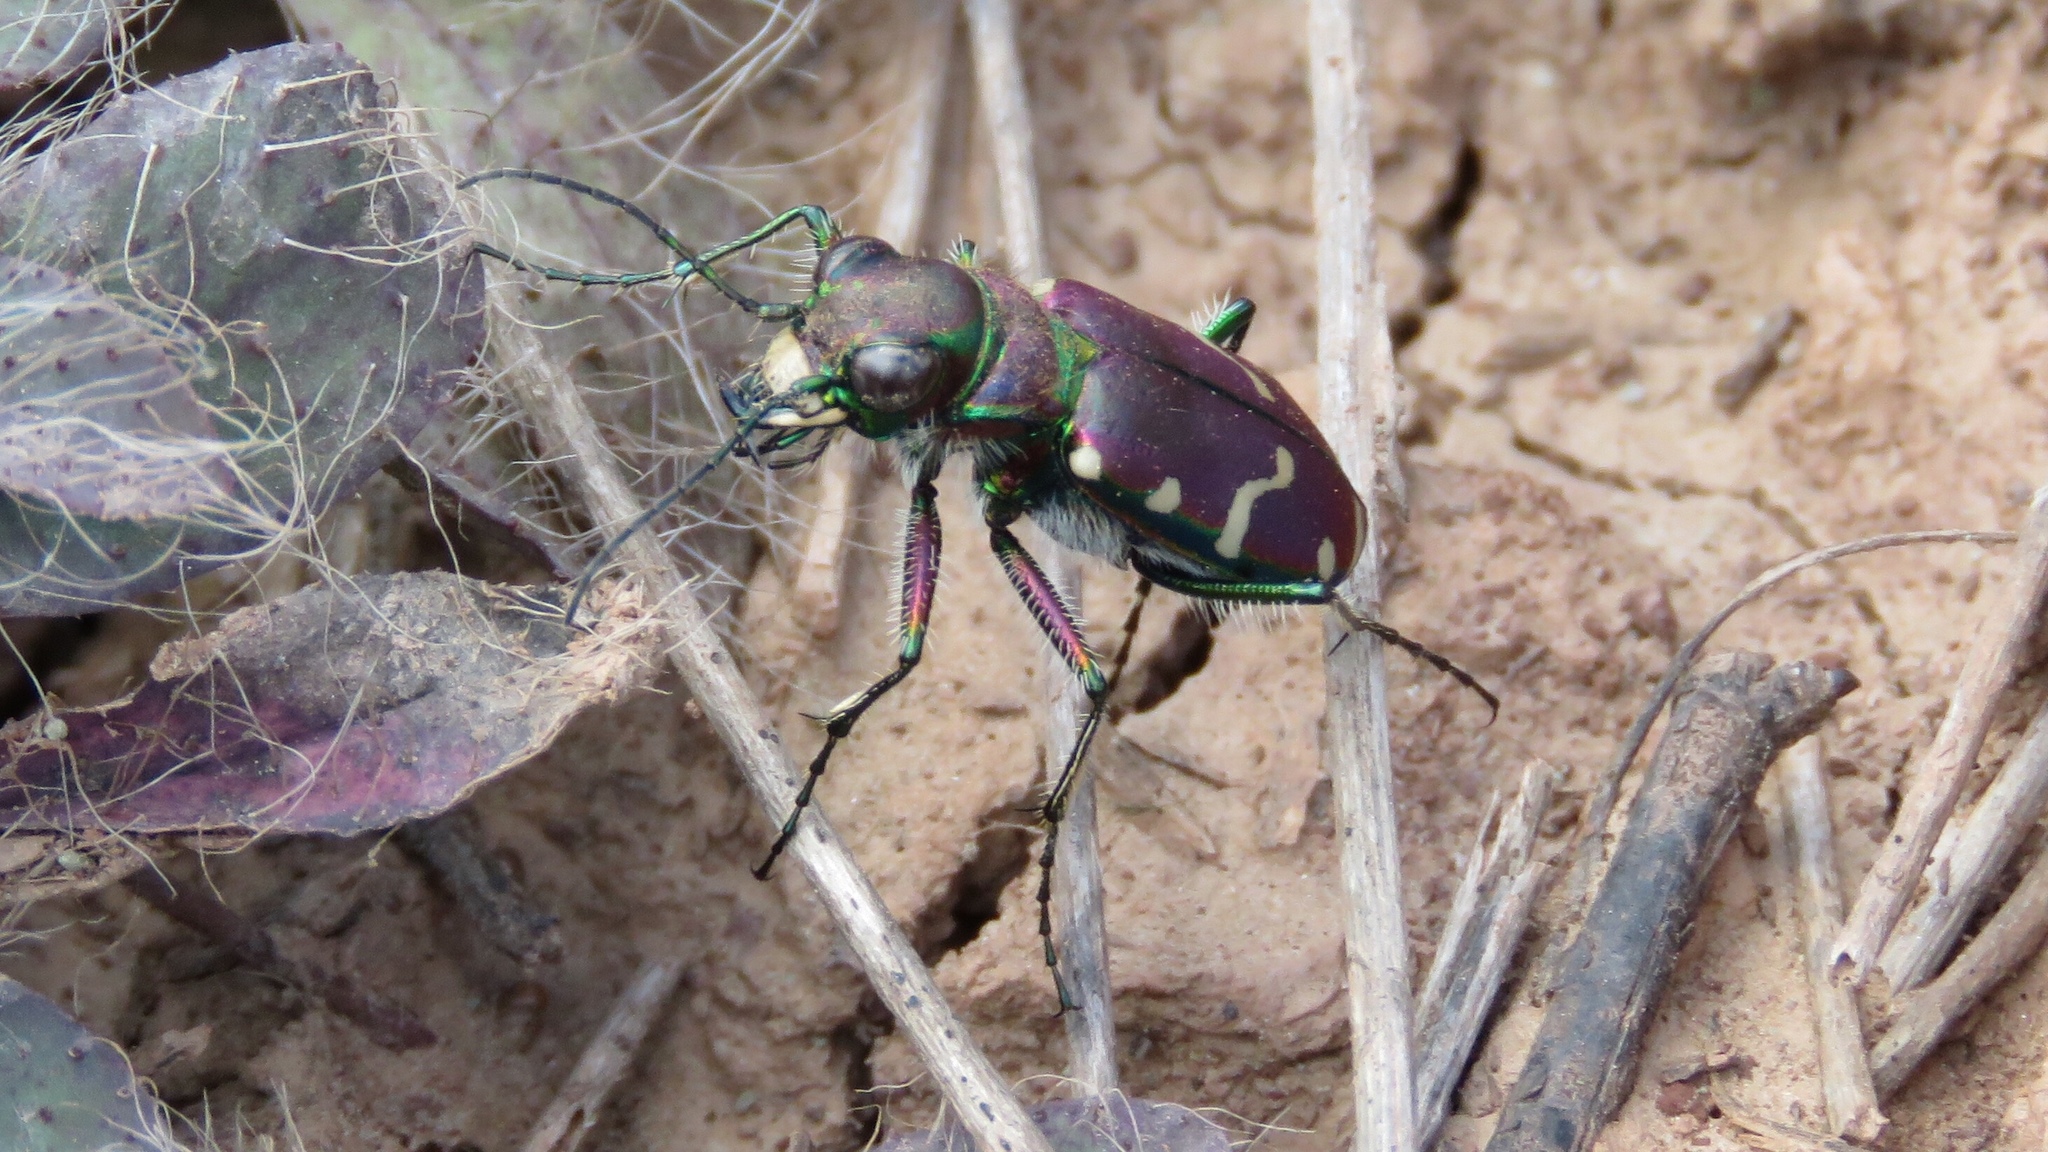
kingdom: Animalia
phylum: Arthropoda
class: Insecta
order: Coleoptera
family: Carabidae
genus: Cicindela
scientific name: Cicindela limbalis
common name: Common claybank tiger beetle
